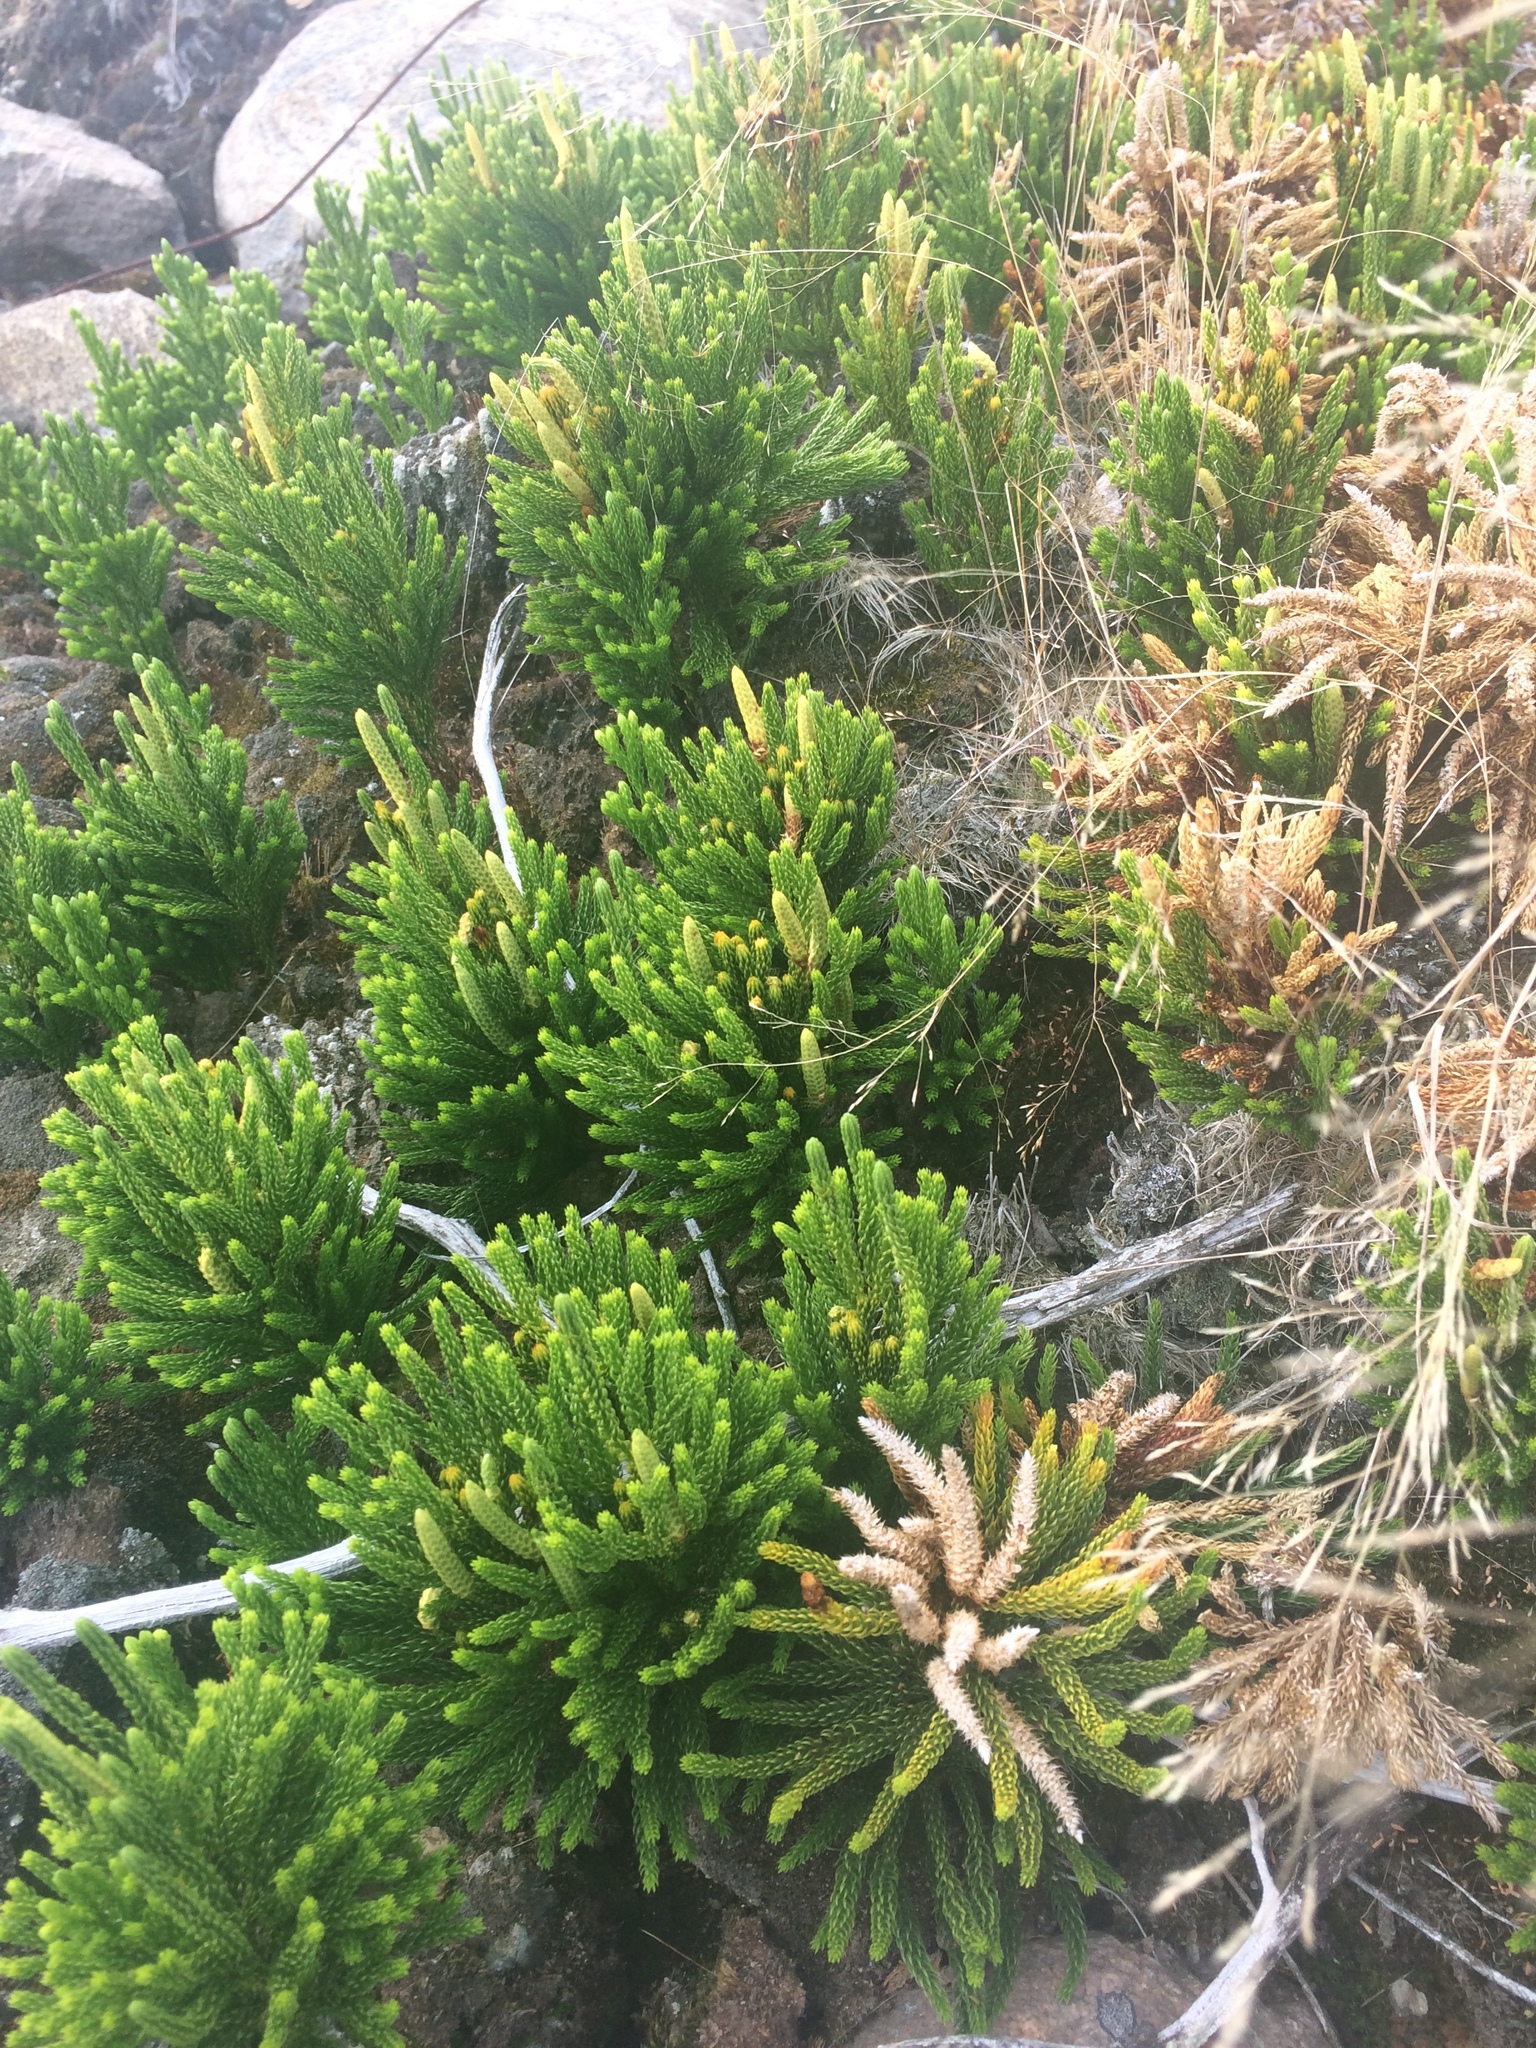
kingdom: Plantae
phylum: Tracheophyta
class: Lycopodiopsida
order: Lycopodiales
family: Lycopodiaceae
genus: Dendrolycopodium
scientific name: Dendrolycopodium hickeyi
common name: Hickey's clubmoss
